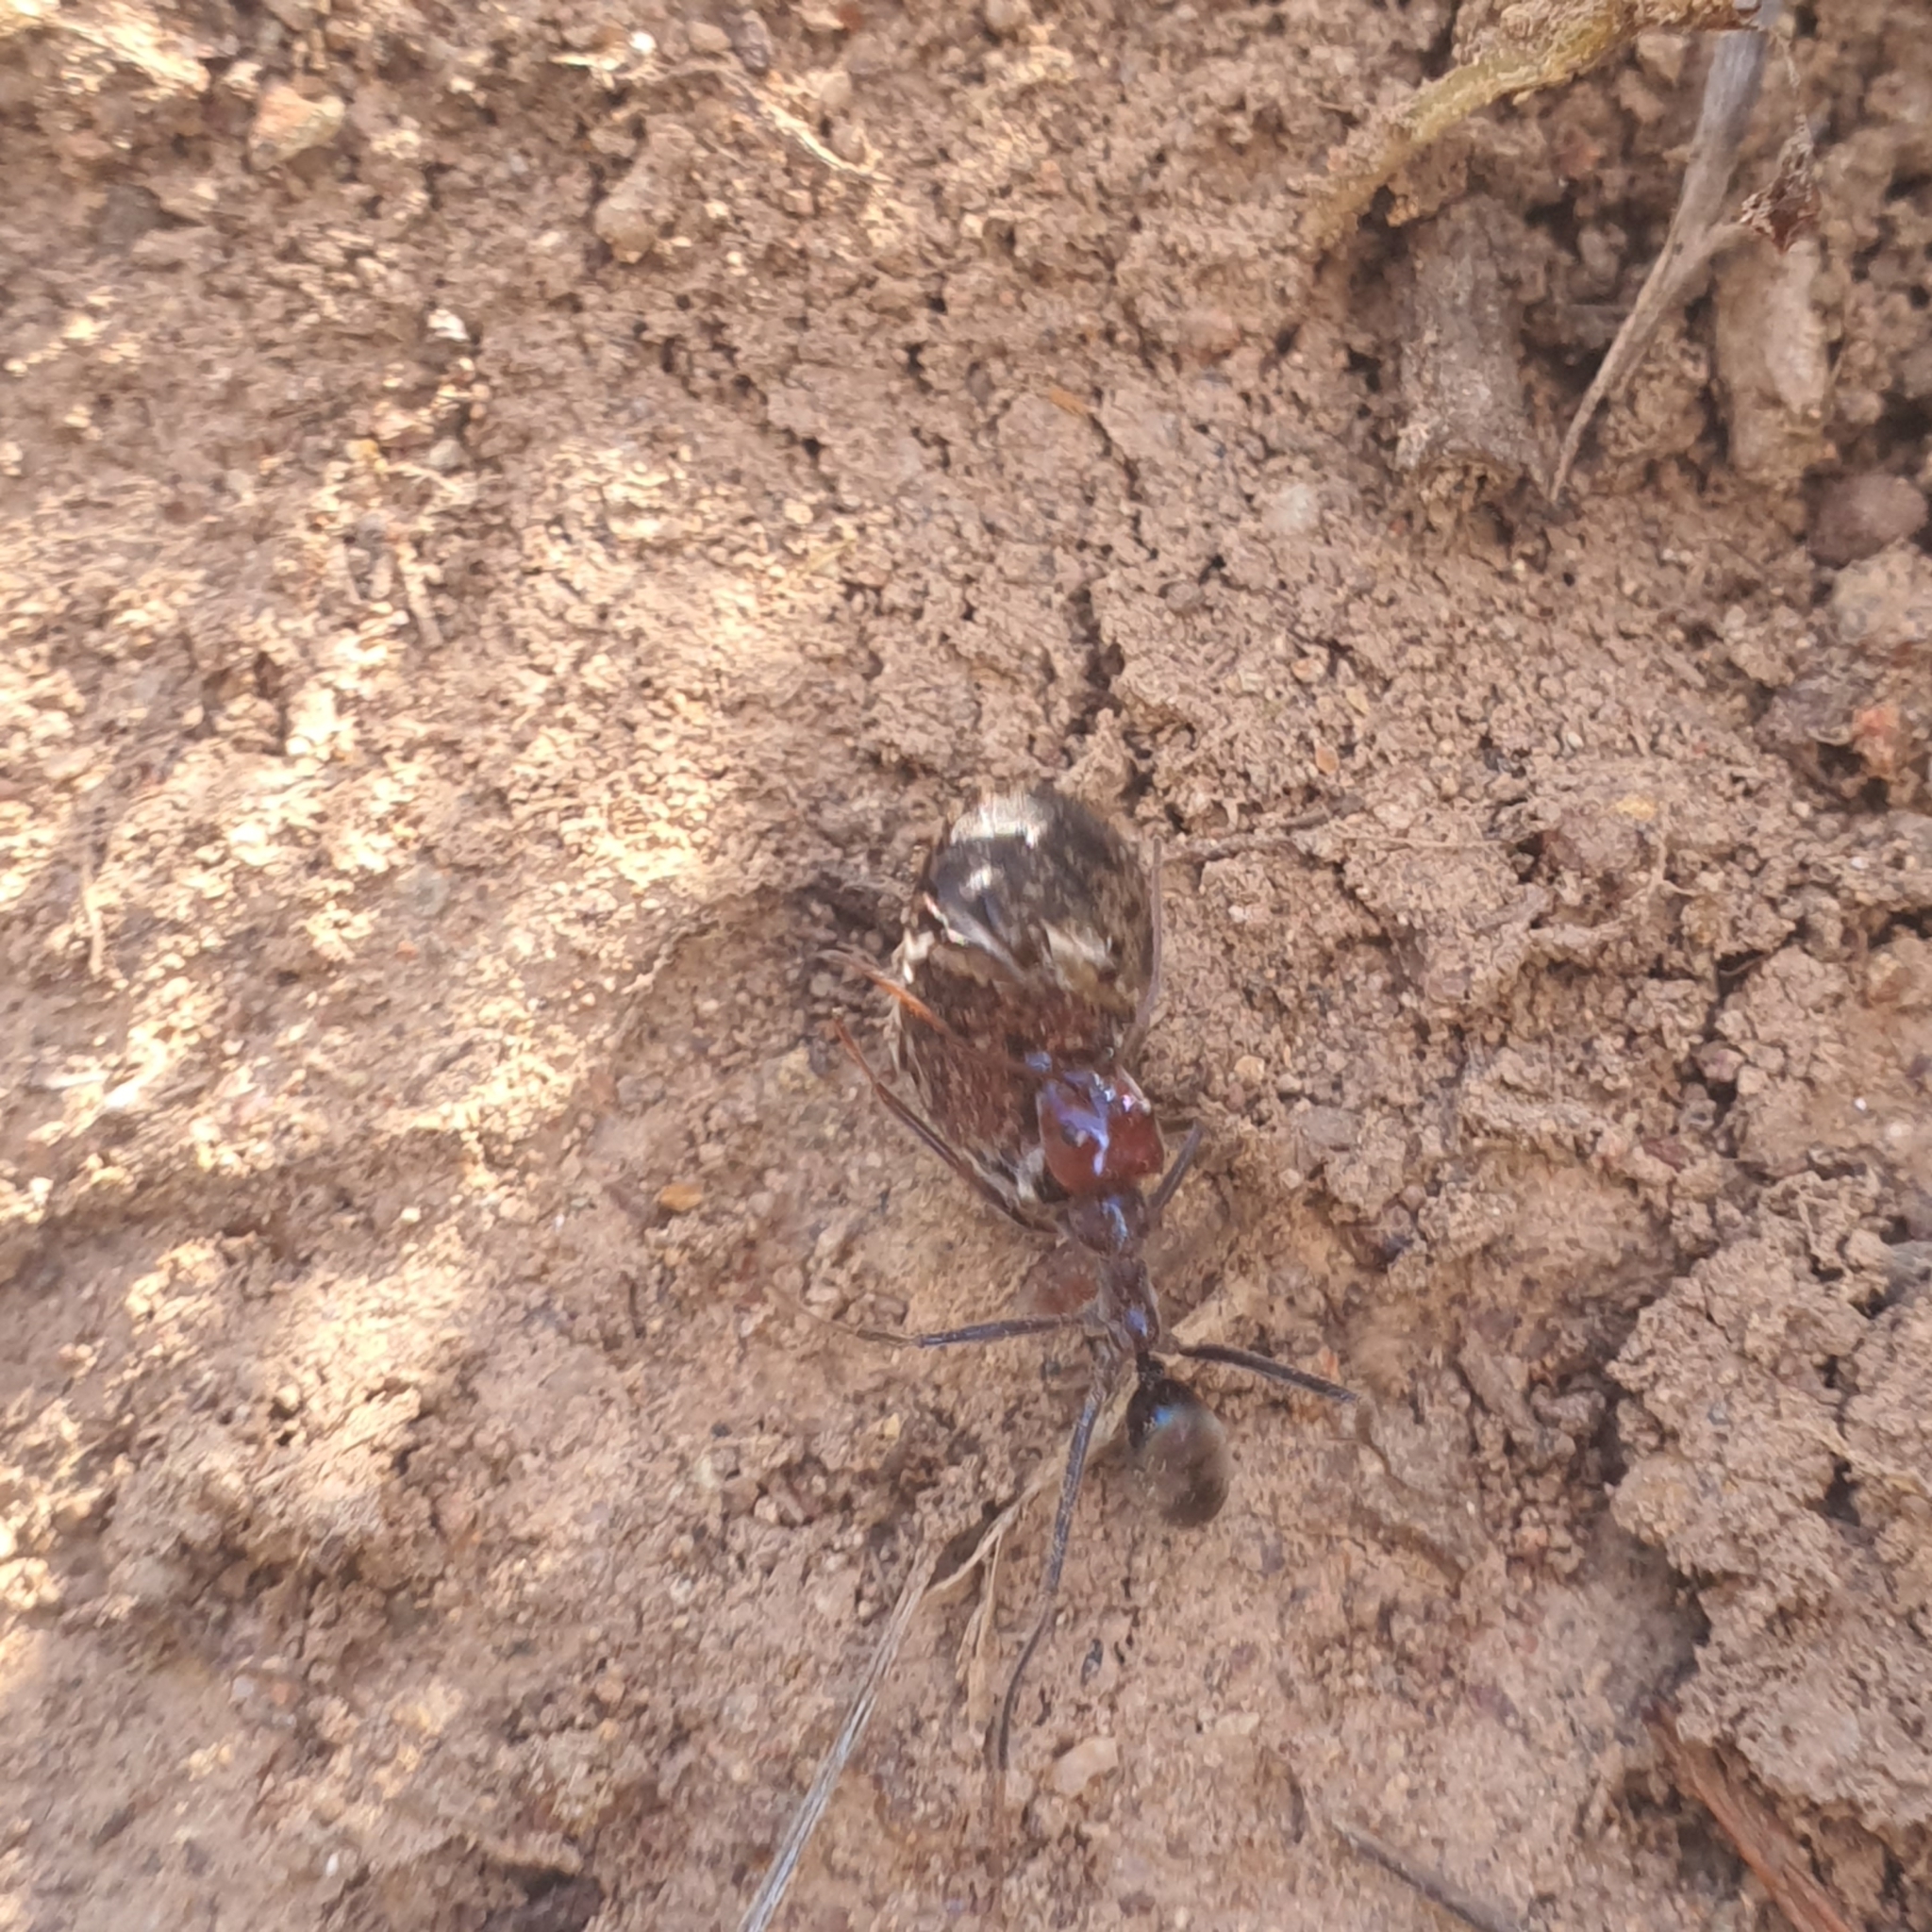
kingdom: Animalia
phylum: Arthropoda
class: Insecta
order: Hymenoptera
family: Formicidae
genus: Iridomyrmex
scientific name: Iridomyrmex purpureus
